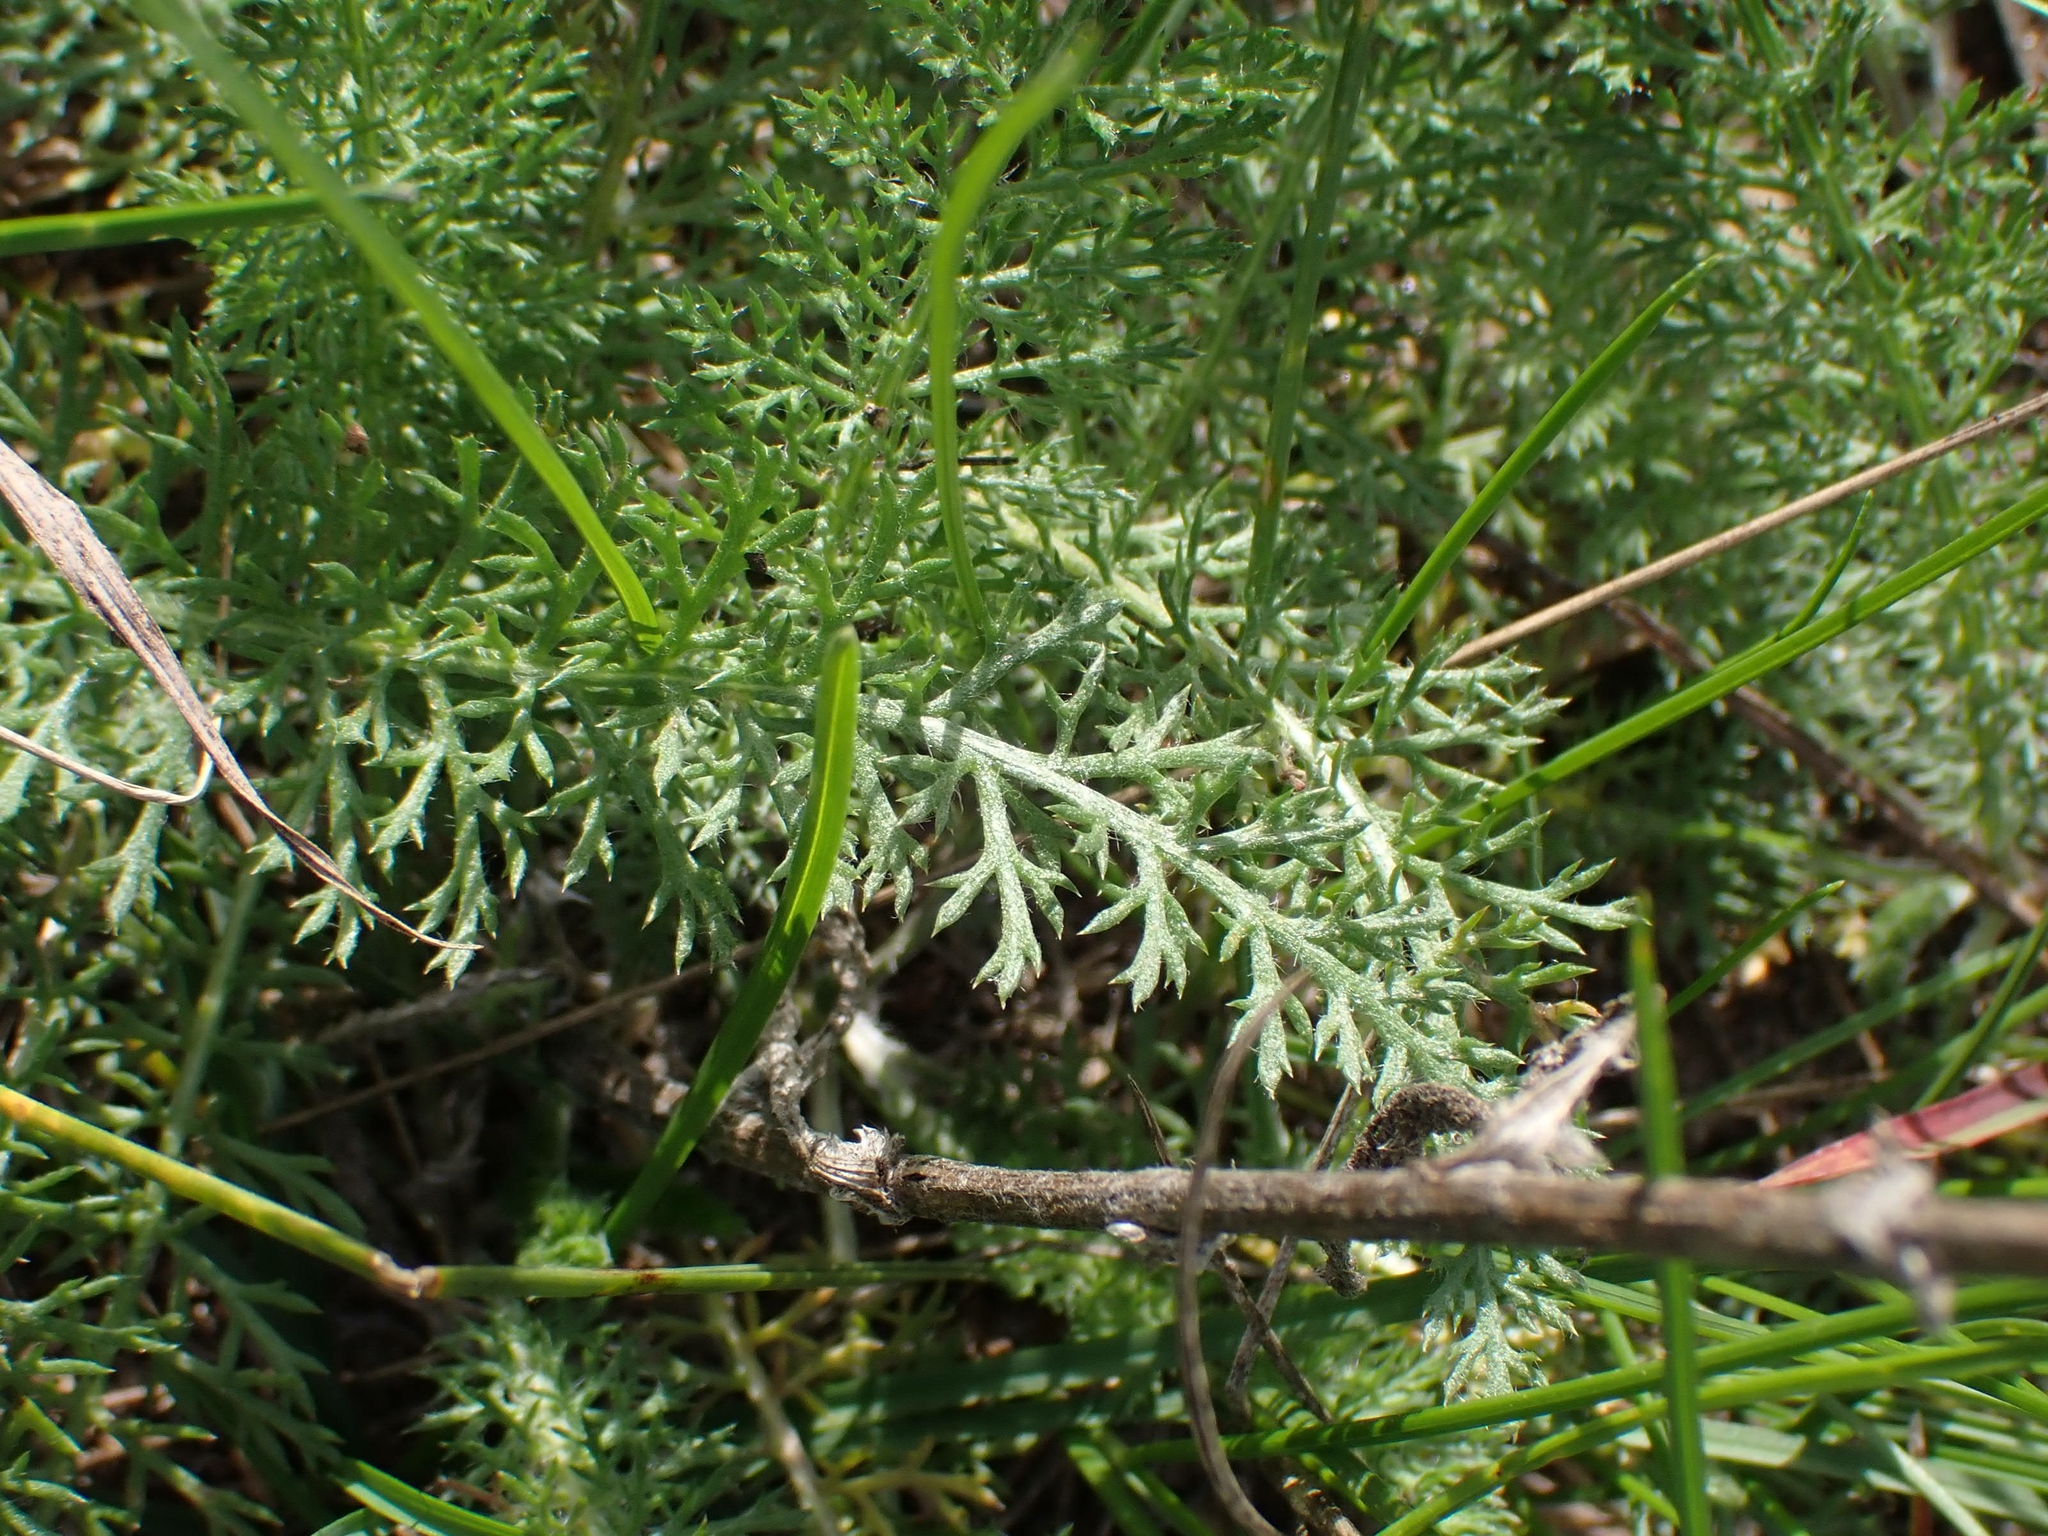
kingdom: Plantae
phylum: Tracheophyta
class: Magnoliopsida
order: Asterales
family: Asteraceae
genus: Achillea
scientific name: Achillea millefolium
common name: Yarrow
